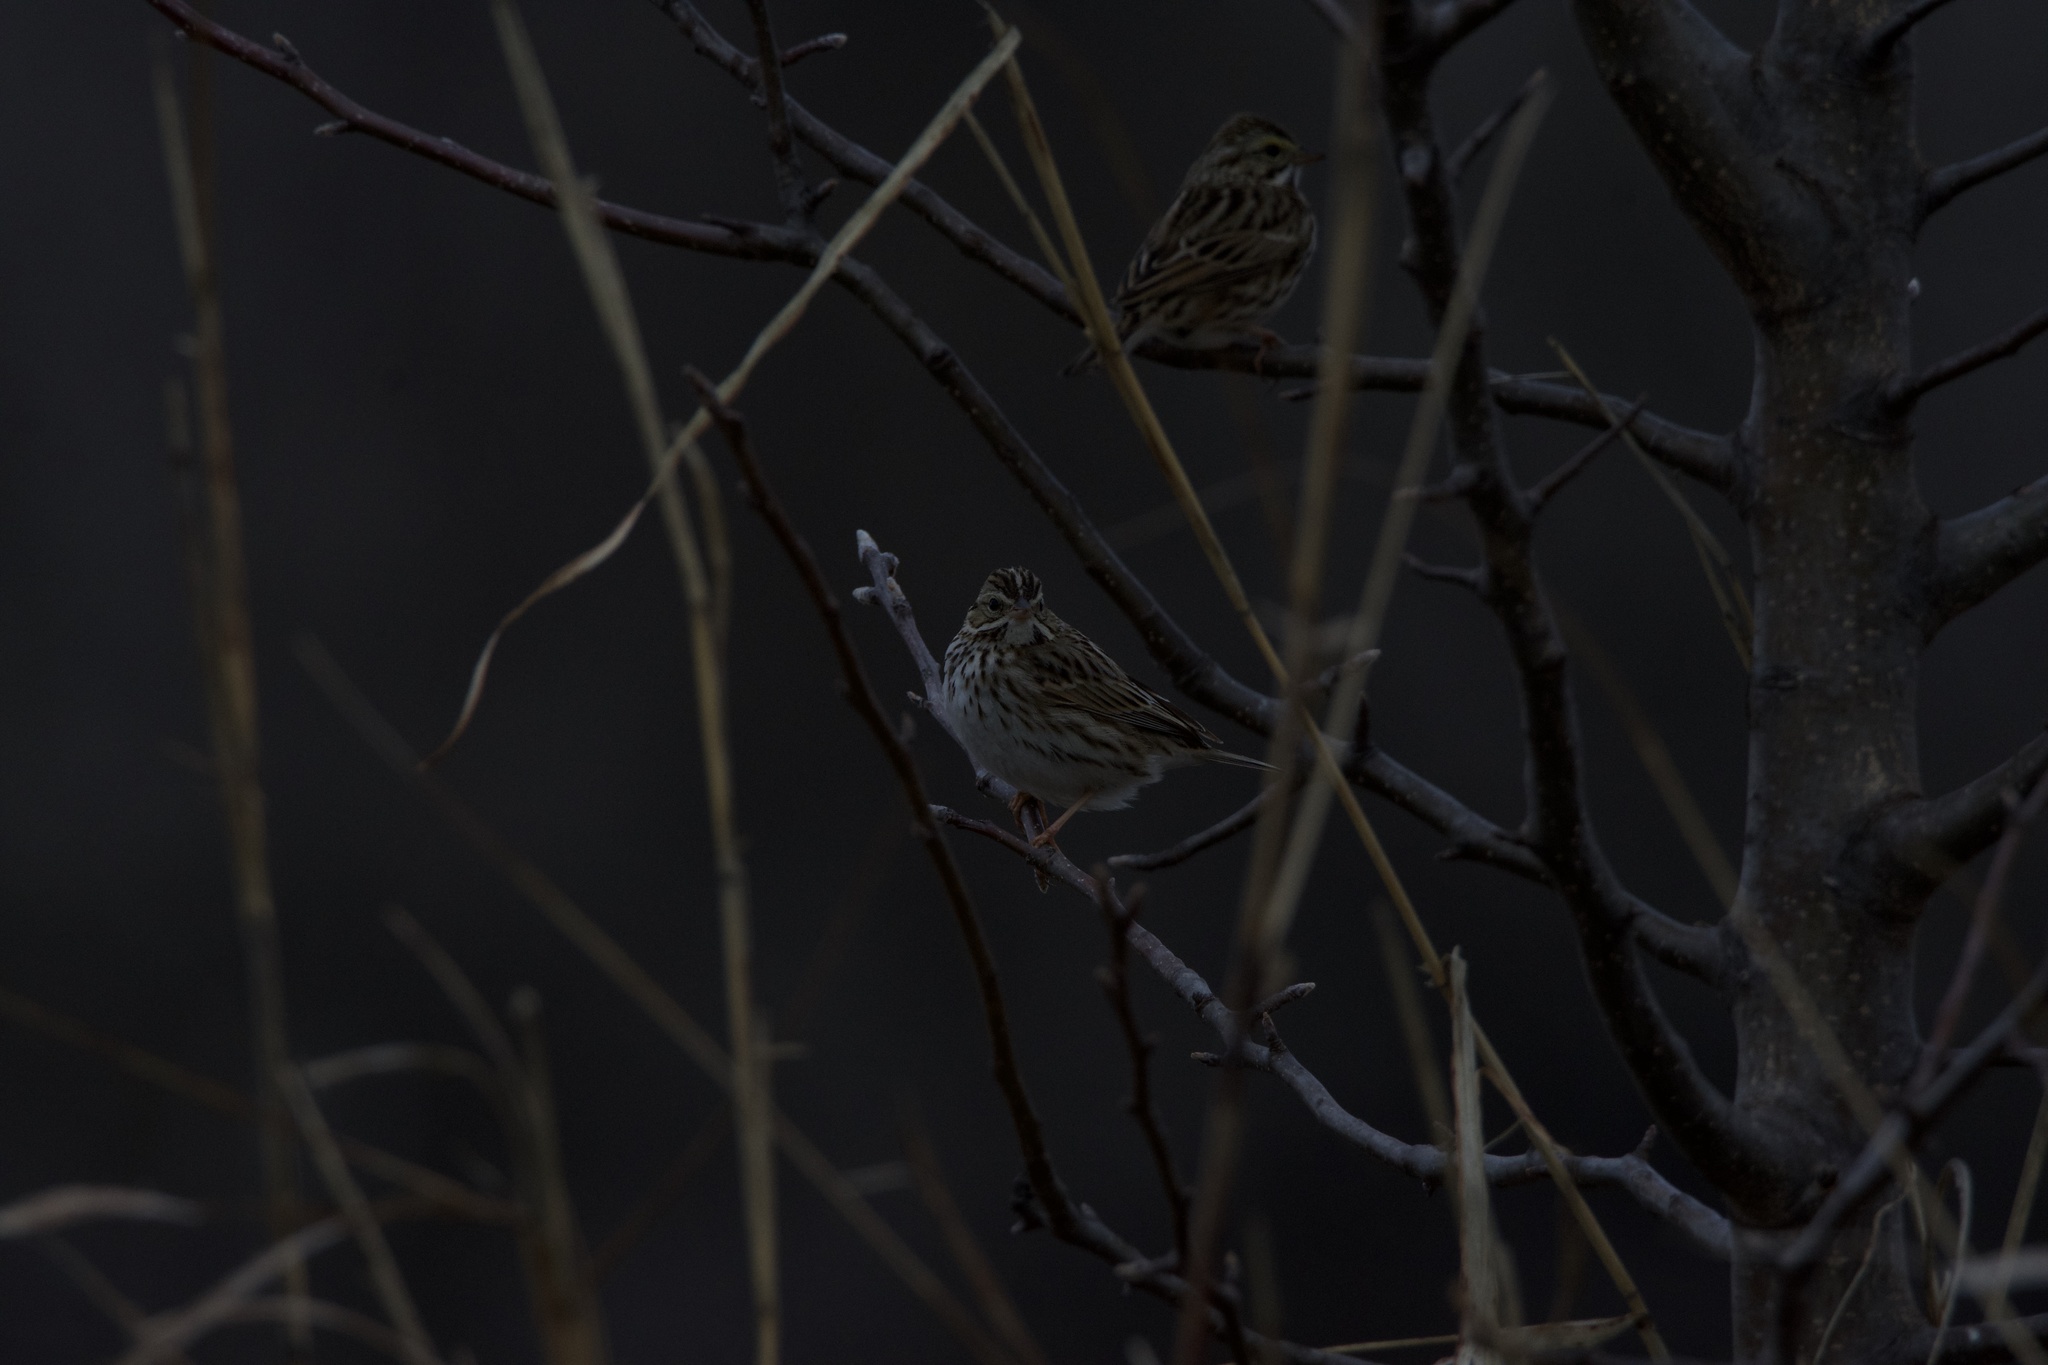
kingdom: Animalia
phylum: Chordata
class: Aves
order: Passeriformes
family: Passerellidae
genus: Passerculus
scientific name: Passerculus sandwichensis
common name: Savannah sparrow
